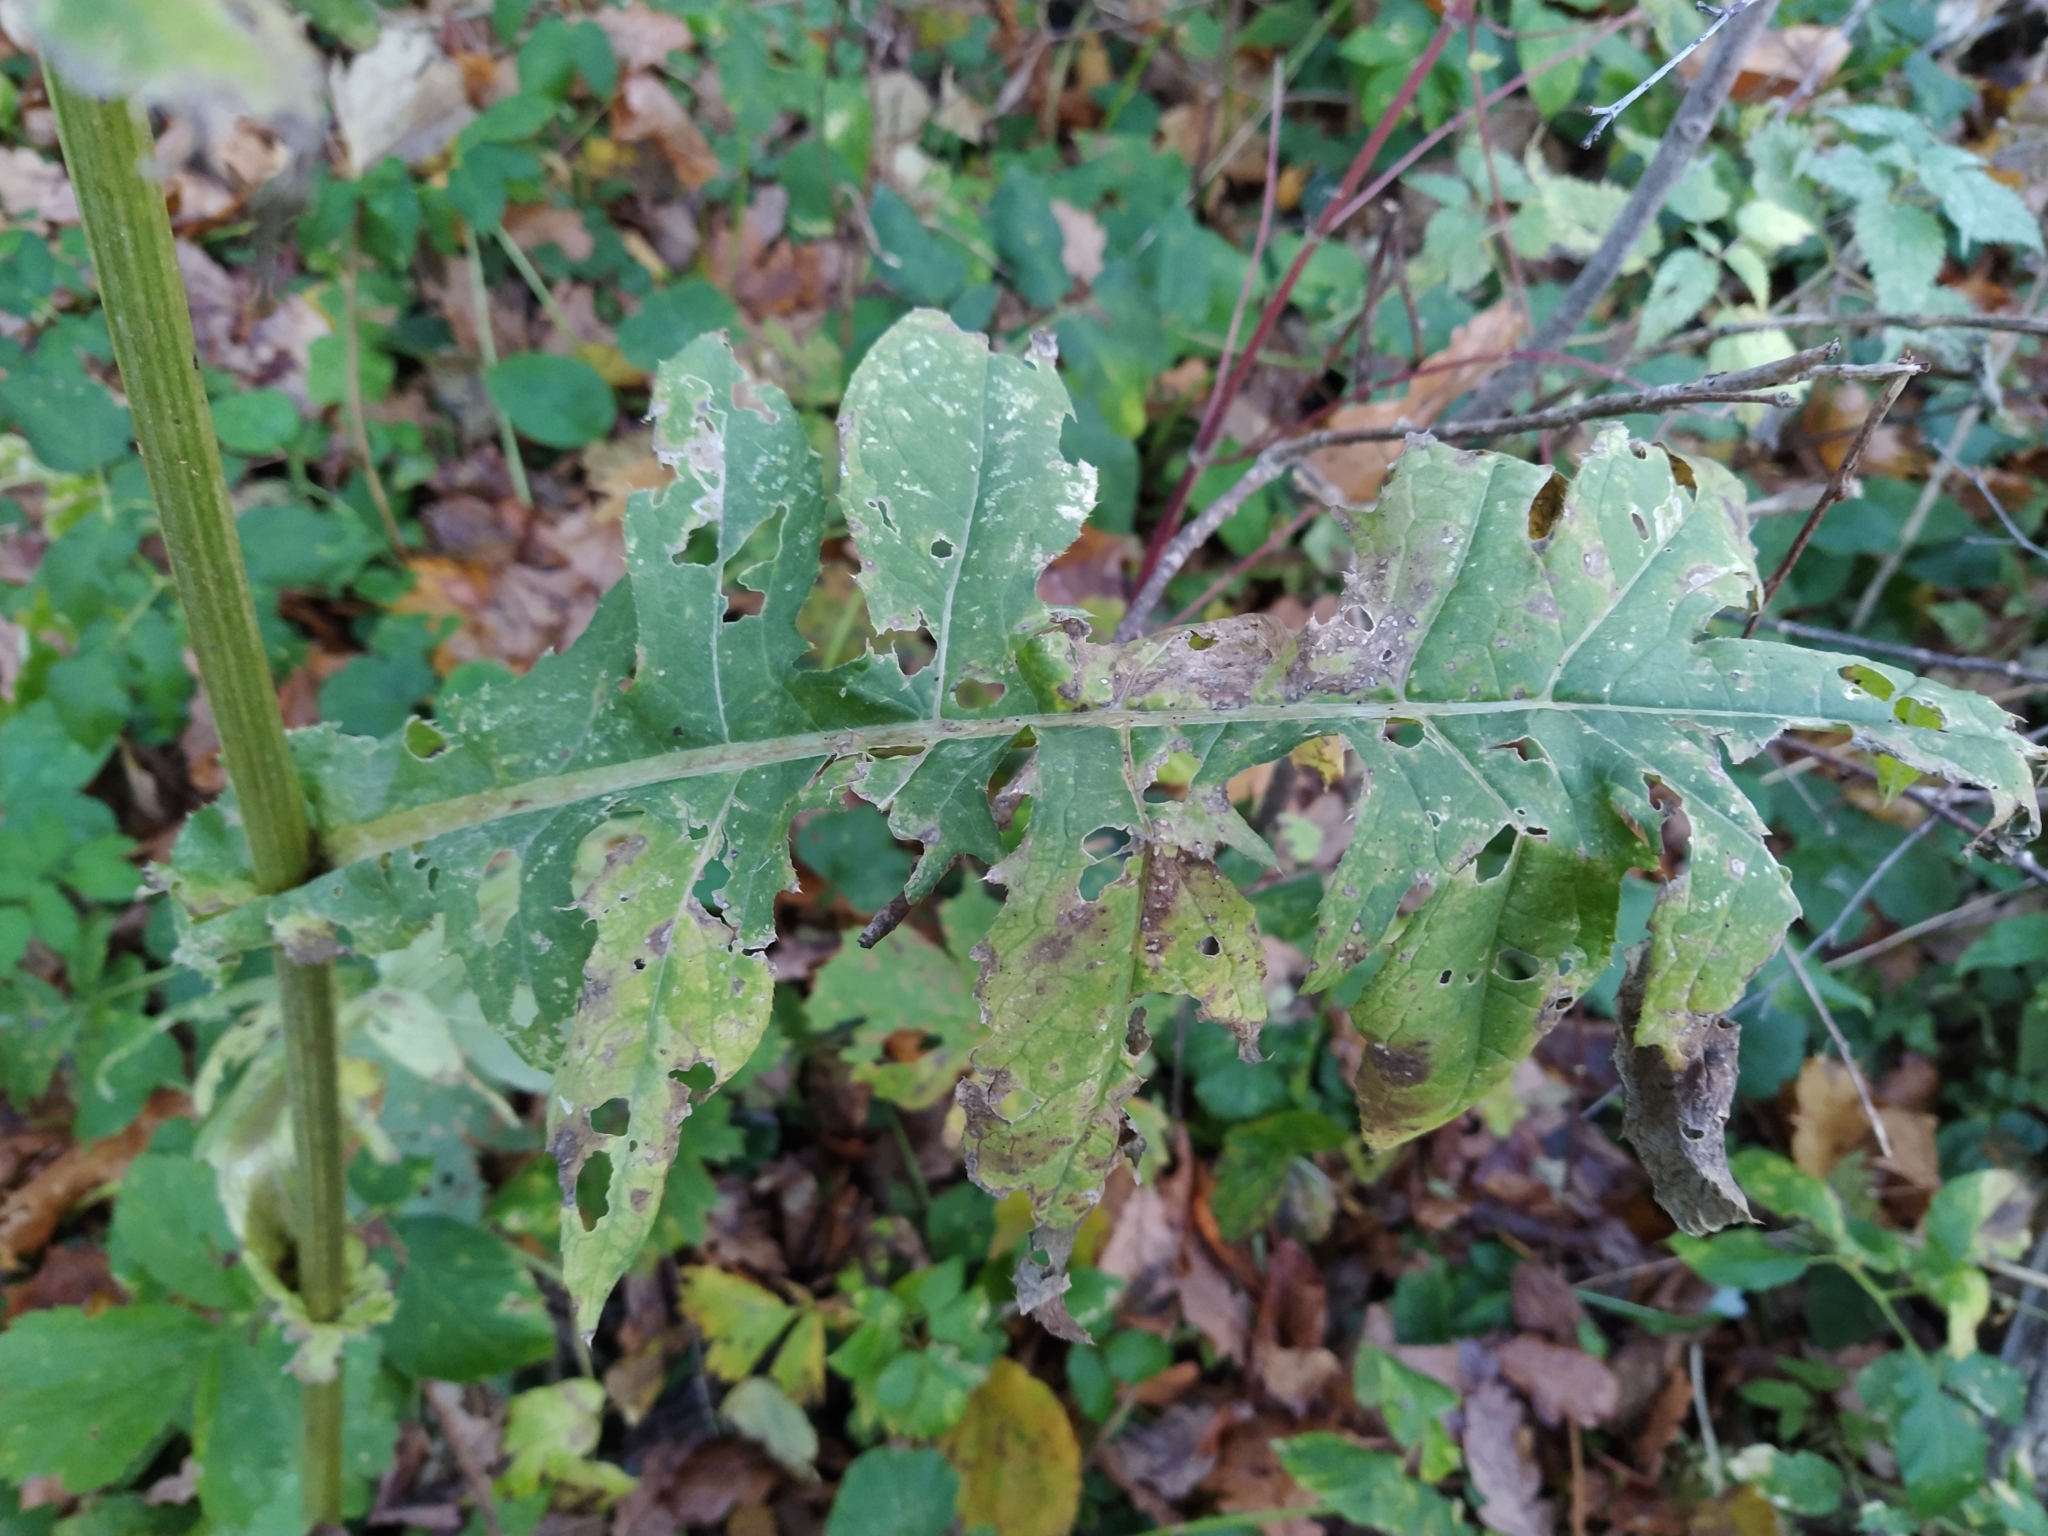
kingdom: Plantae
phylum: Tracheophyta
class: Magnoliopsida
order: Asterales
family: Asteraceae
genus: Cirsium
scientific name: Cirsium oleraceum
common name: Cabbage thistle
